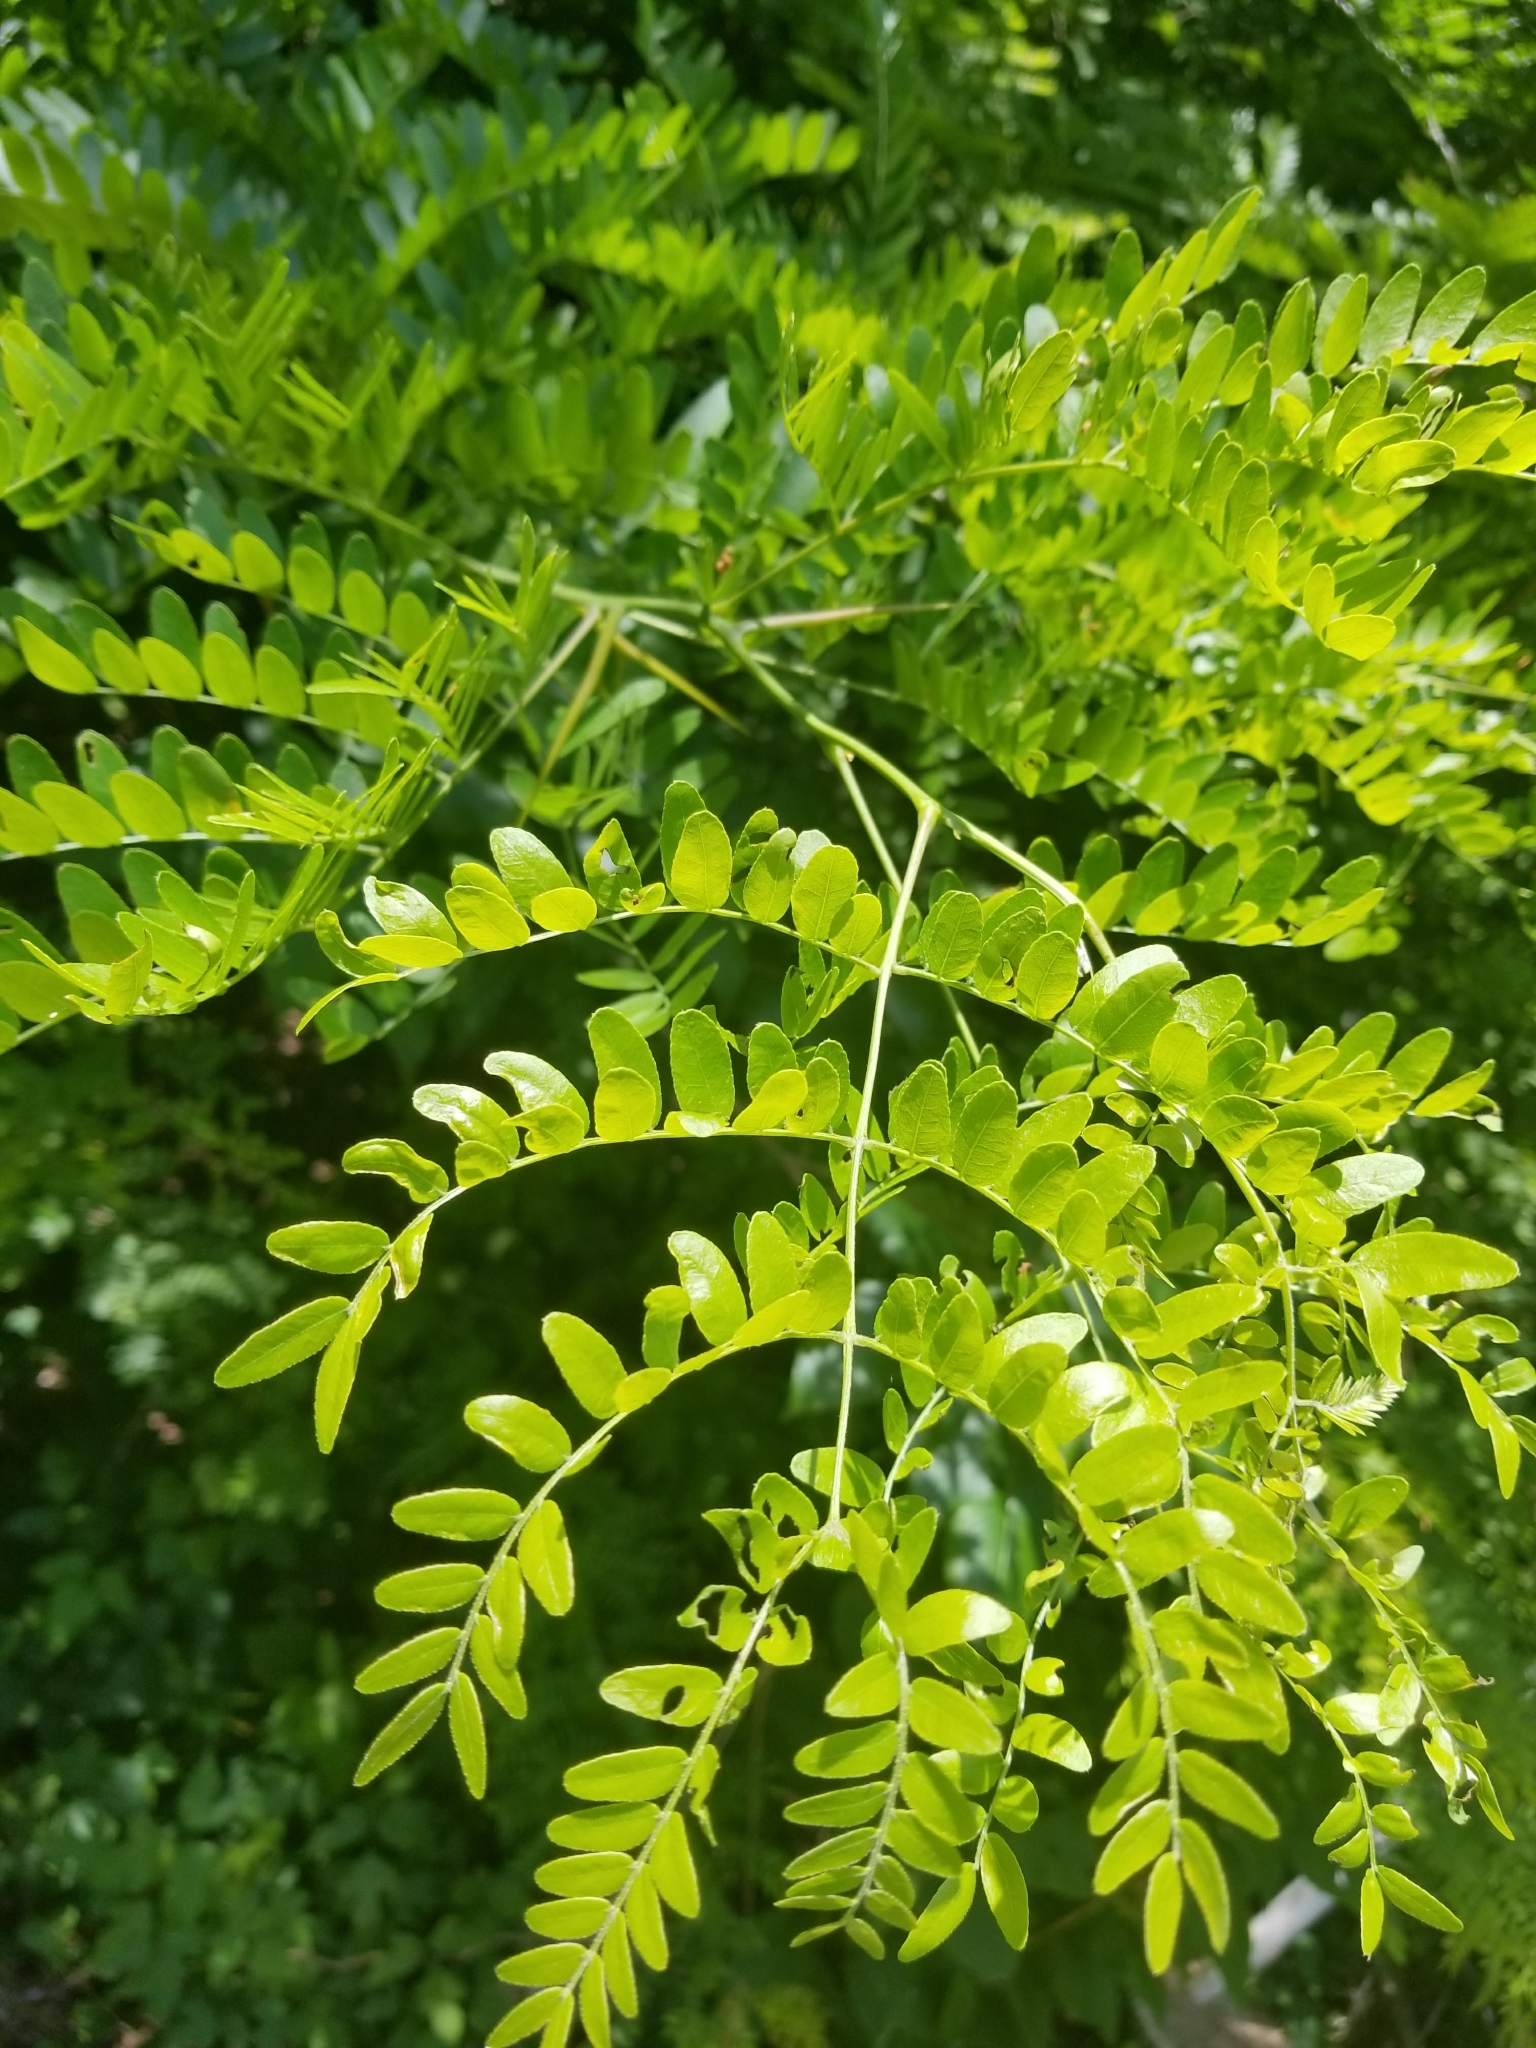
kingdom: Plantae
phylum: Tracheophyta
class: Magnoliopsida
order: Fabales
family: Fabaceae
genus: Gleditsia
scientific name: Gleditsia triacanthos
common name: Common honeylocust
